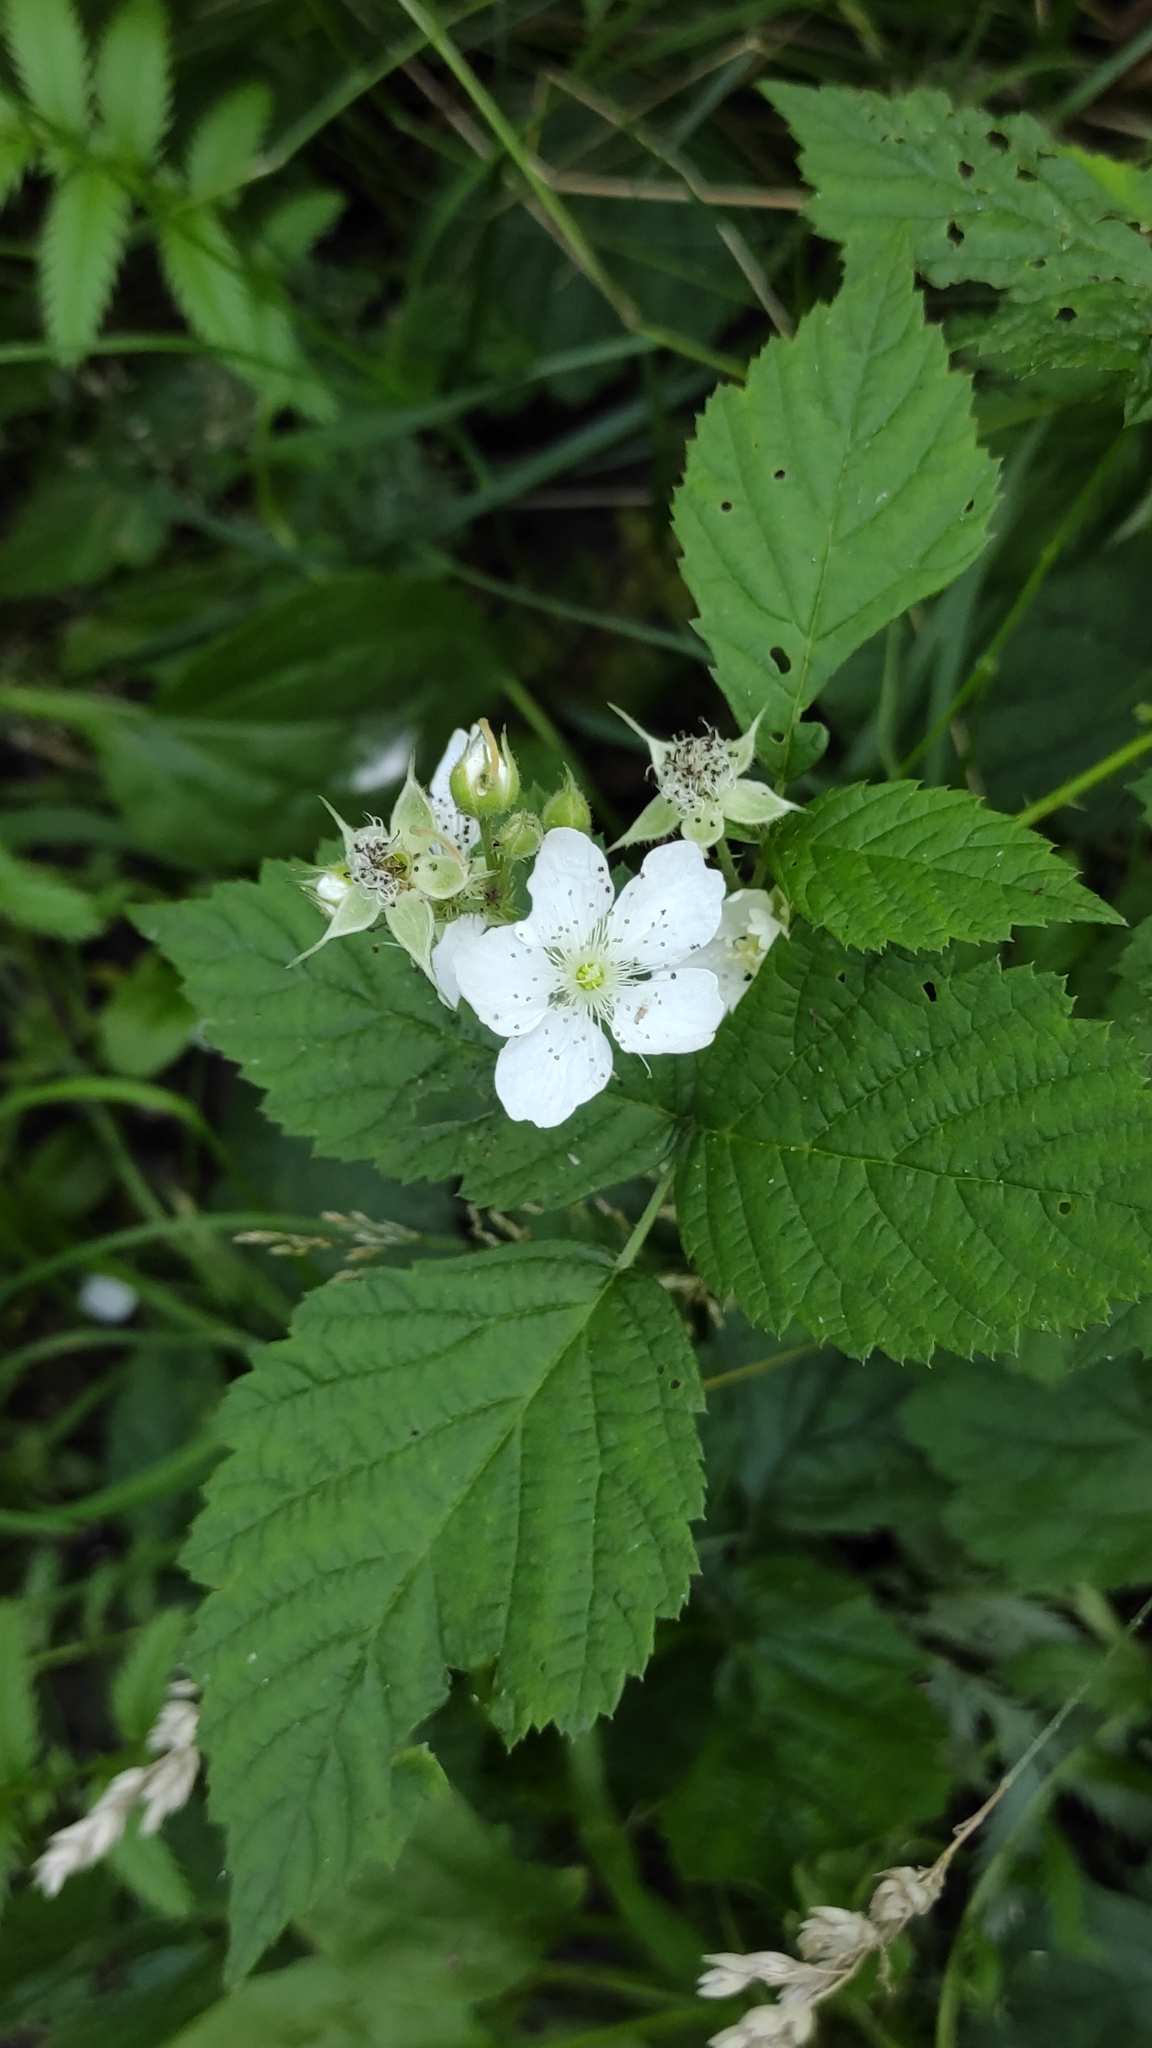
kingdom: Plantae
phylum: Tracheophyta
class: Magnoliopsida
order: Rosales
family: Rosaceae
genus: Rubus
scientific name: Rubus caesius
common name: Dewberry
